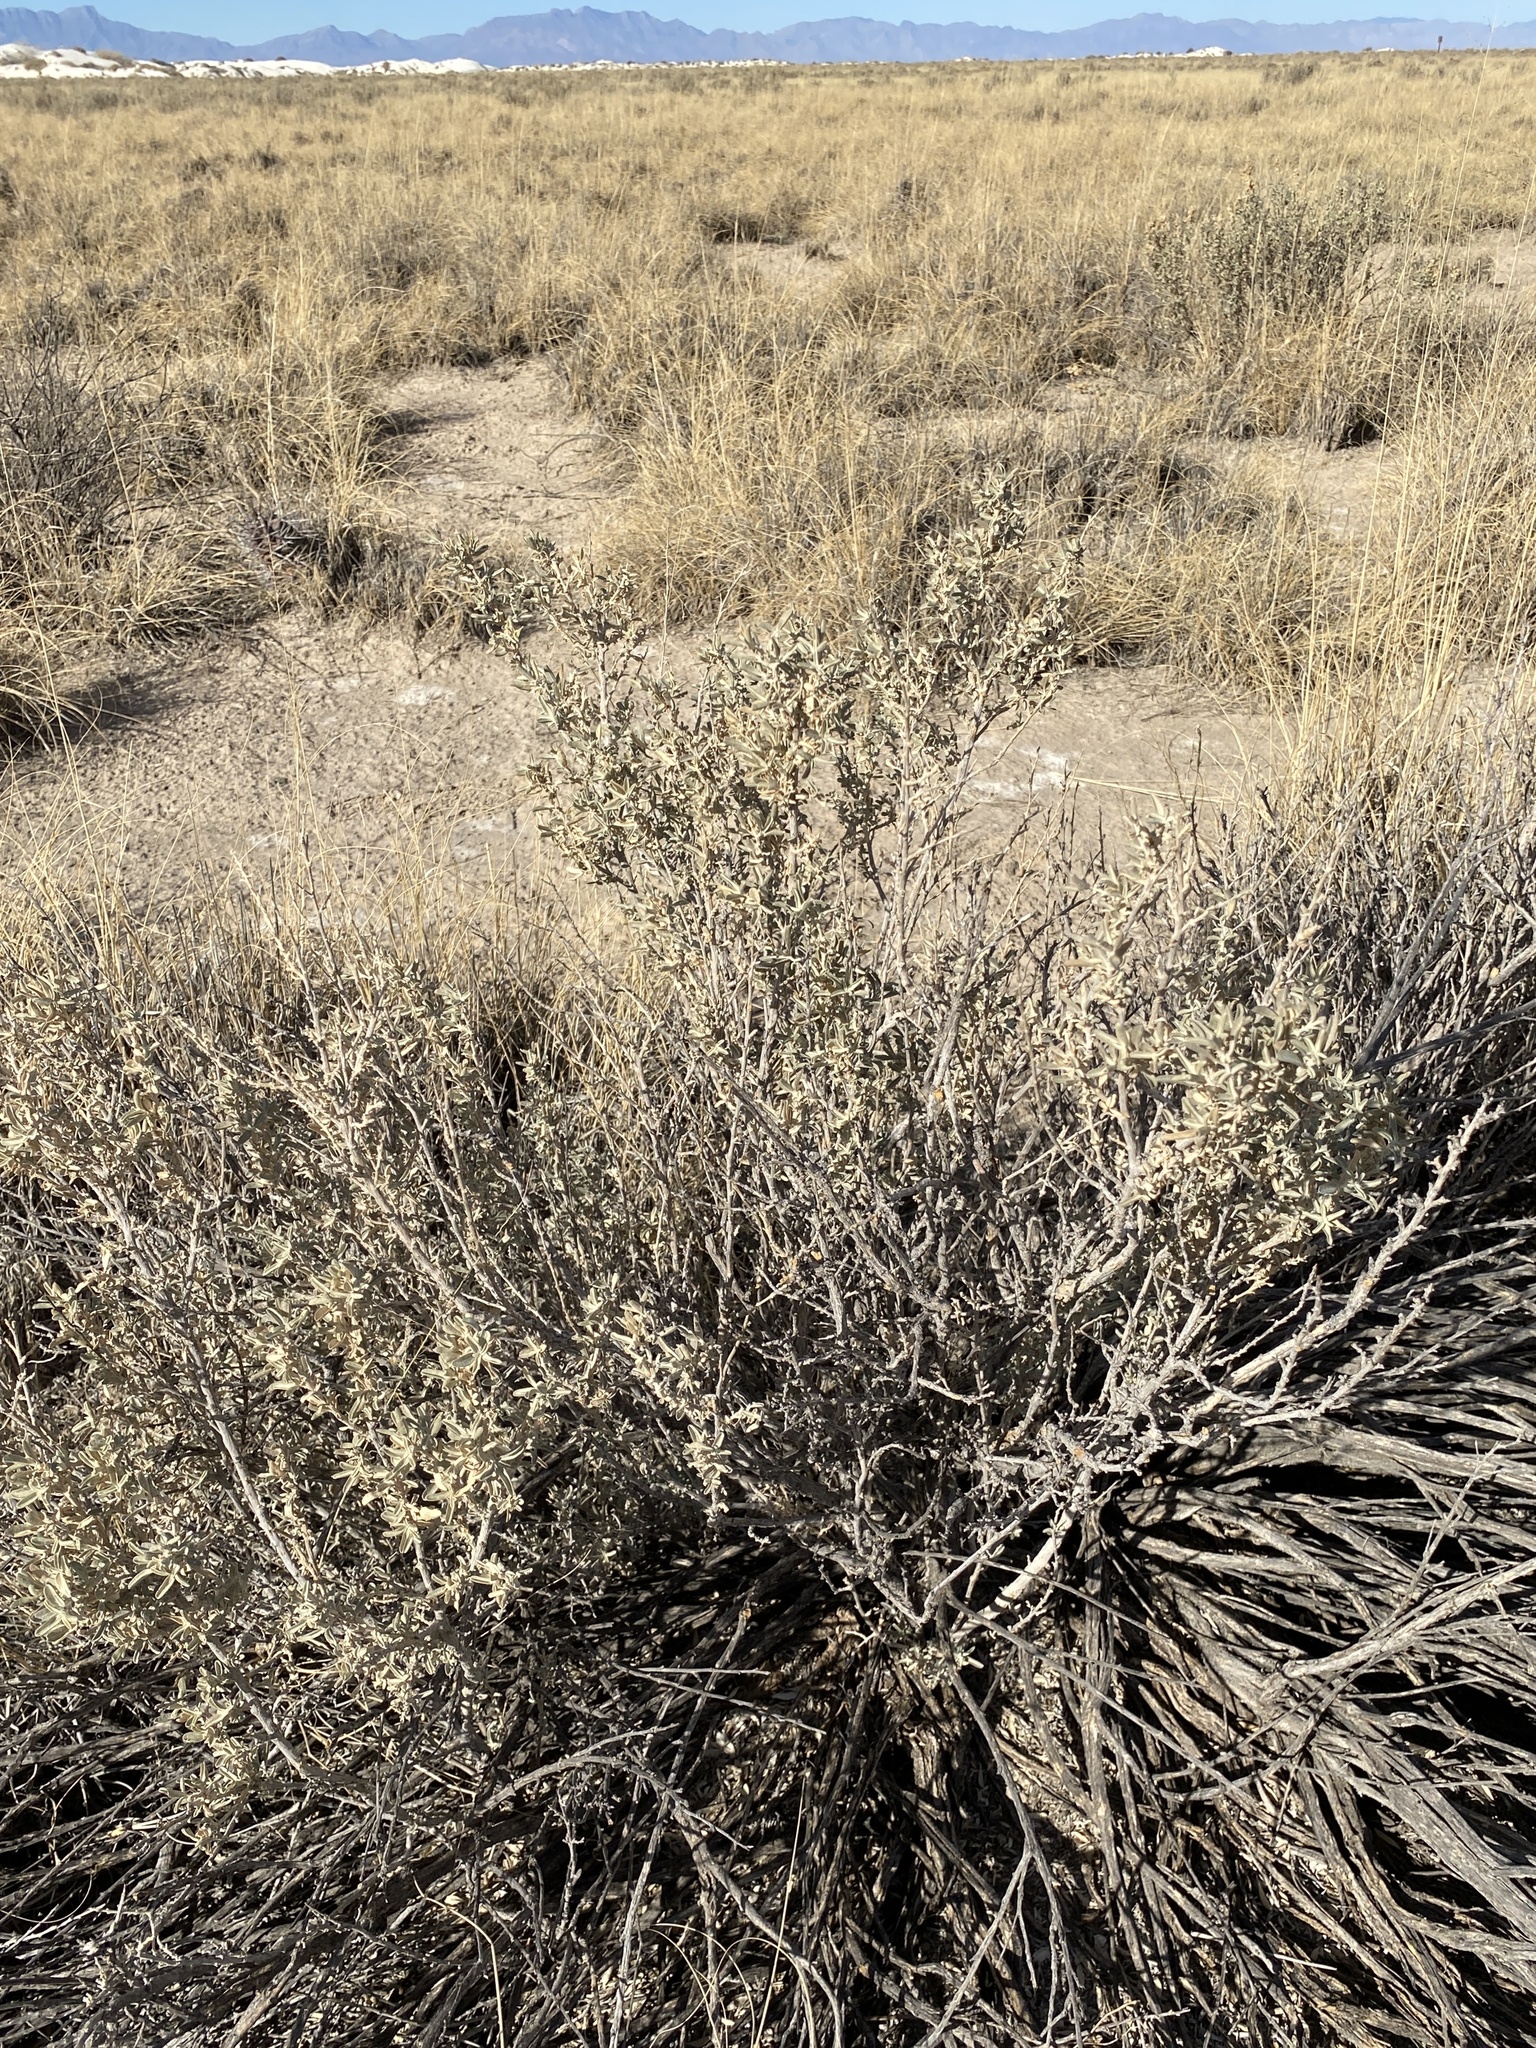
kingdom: Plantae
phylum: Tracheophyta
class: Magnoliopsida
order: Caryophyllales
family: Amaranthaceae
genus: Atriplex
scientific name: Atriplex canescens
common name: Four-wing saltbush
